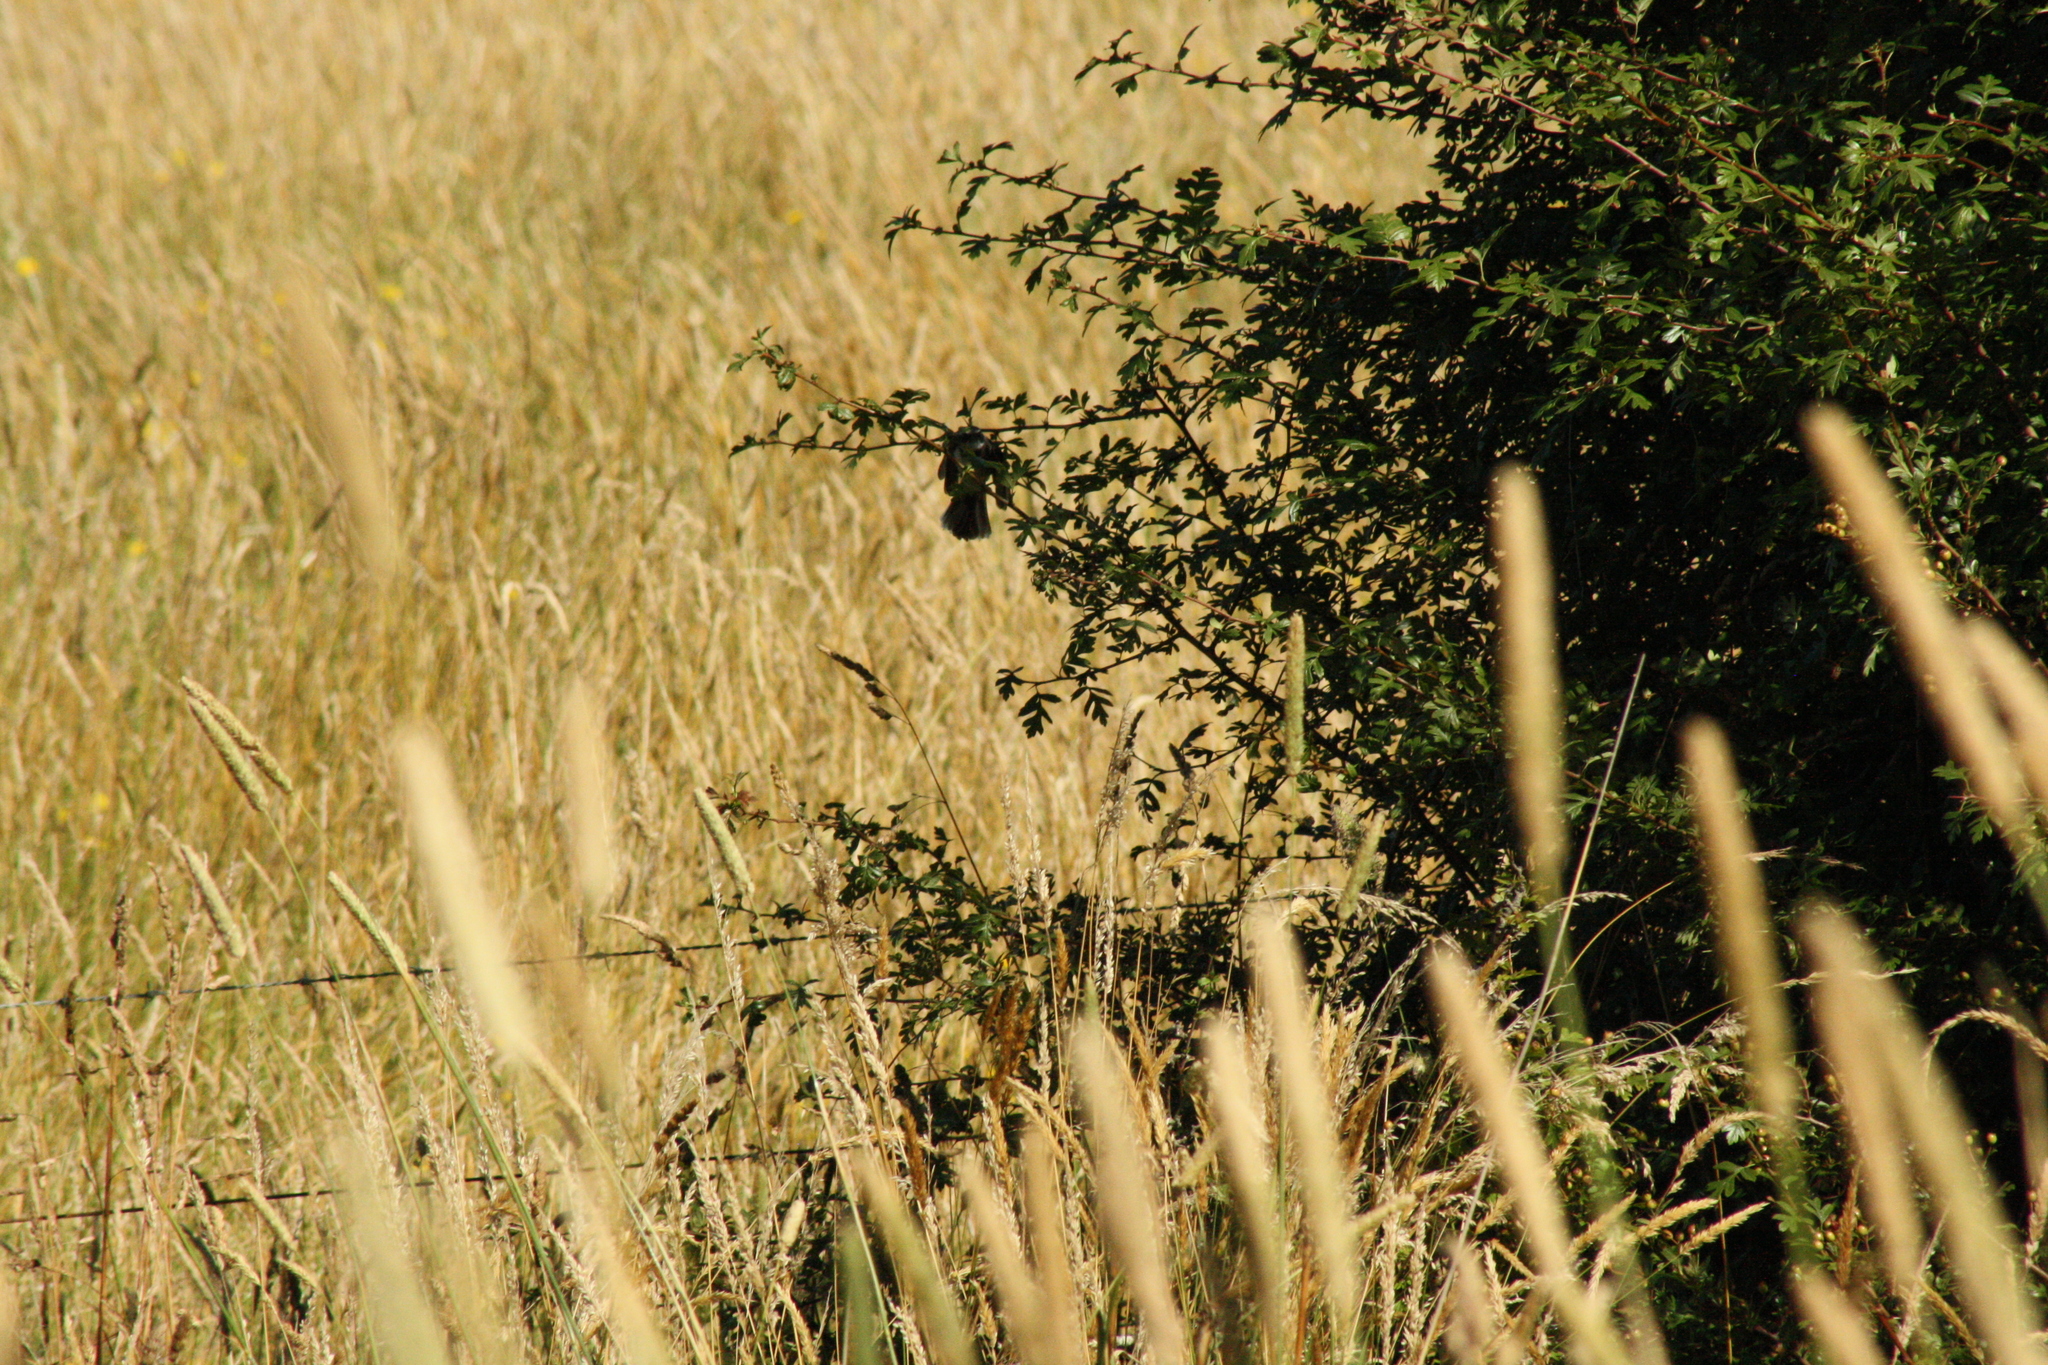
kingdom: Animalia
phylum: Chordata
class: Aves
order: Passeriformes
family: Rhipiduridae
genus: Rhipidura
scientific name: Rhipidura albiscapa
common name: Grey fantail
